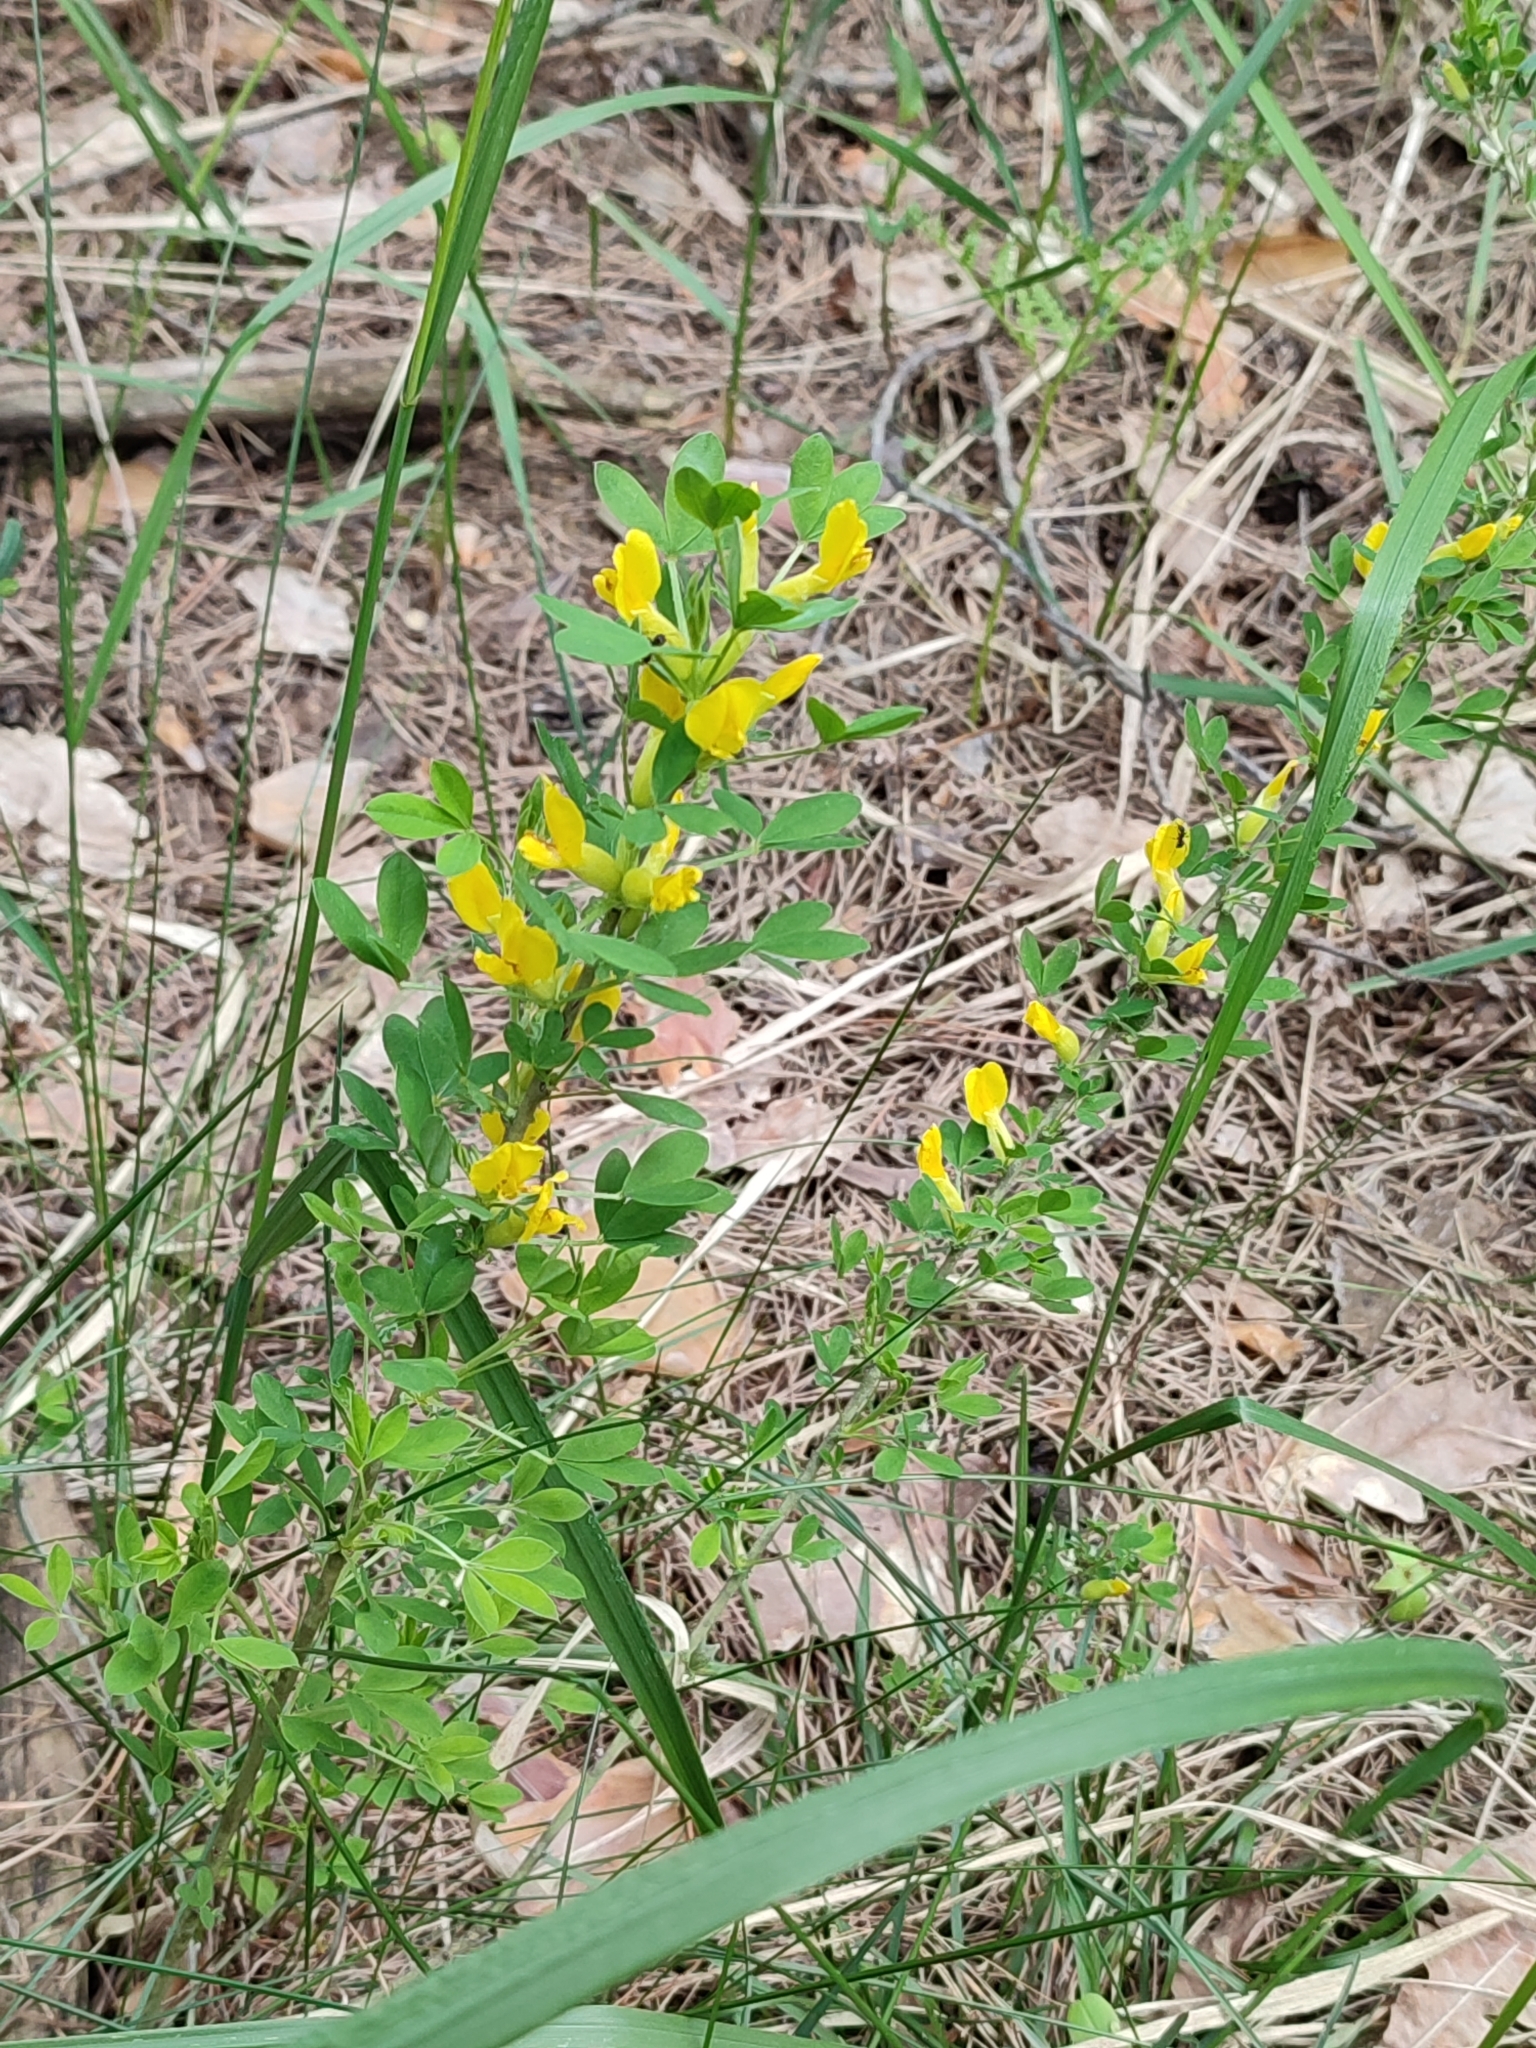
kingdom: Plantae
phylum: Tracheophyta
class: Magnoliopsida
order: Fabales
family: Fabaceae
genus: Chamaecytisus
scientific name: Chamaecytisus ruthenicus
